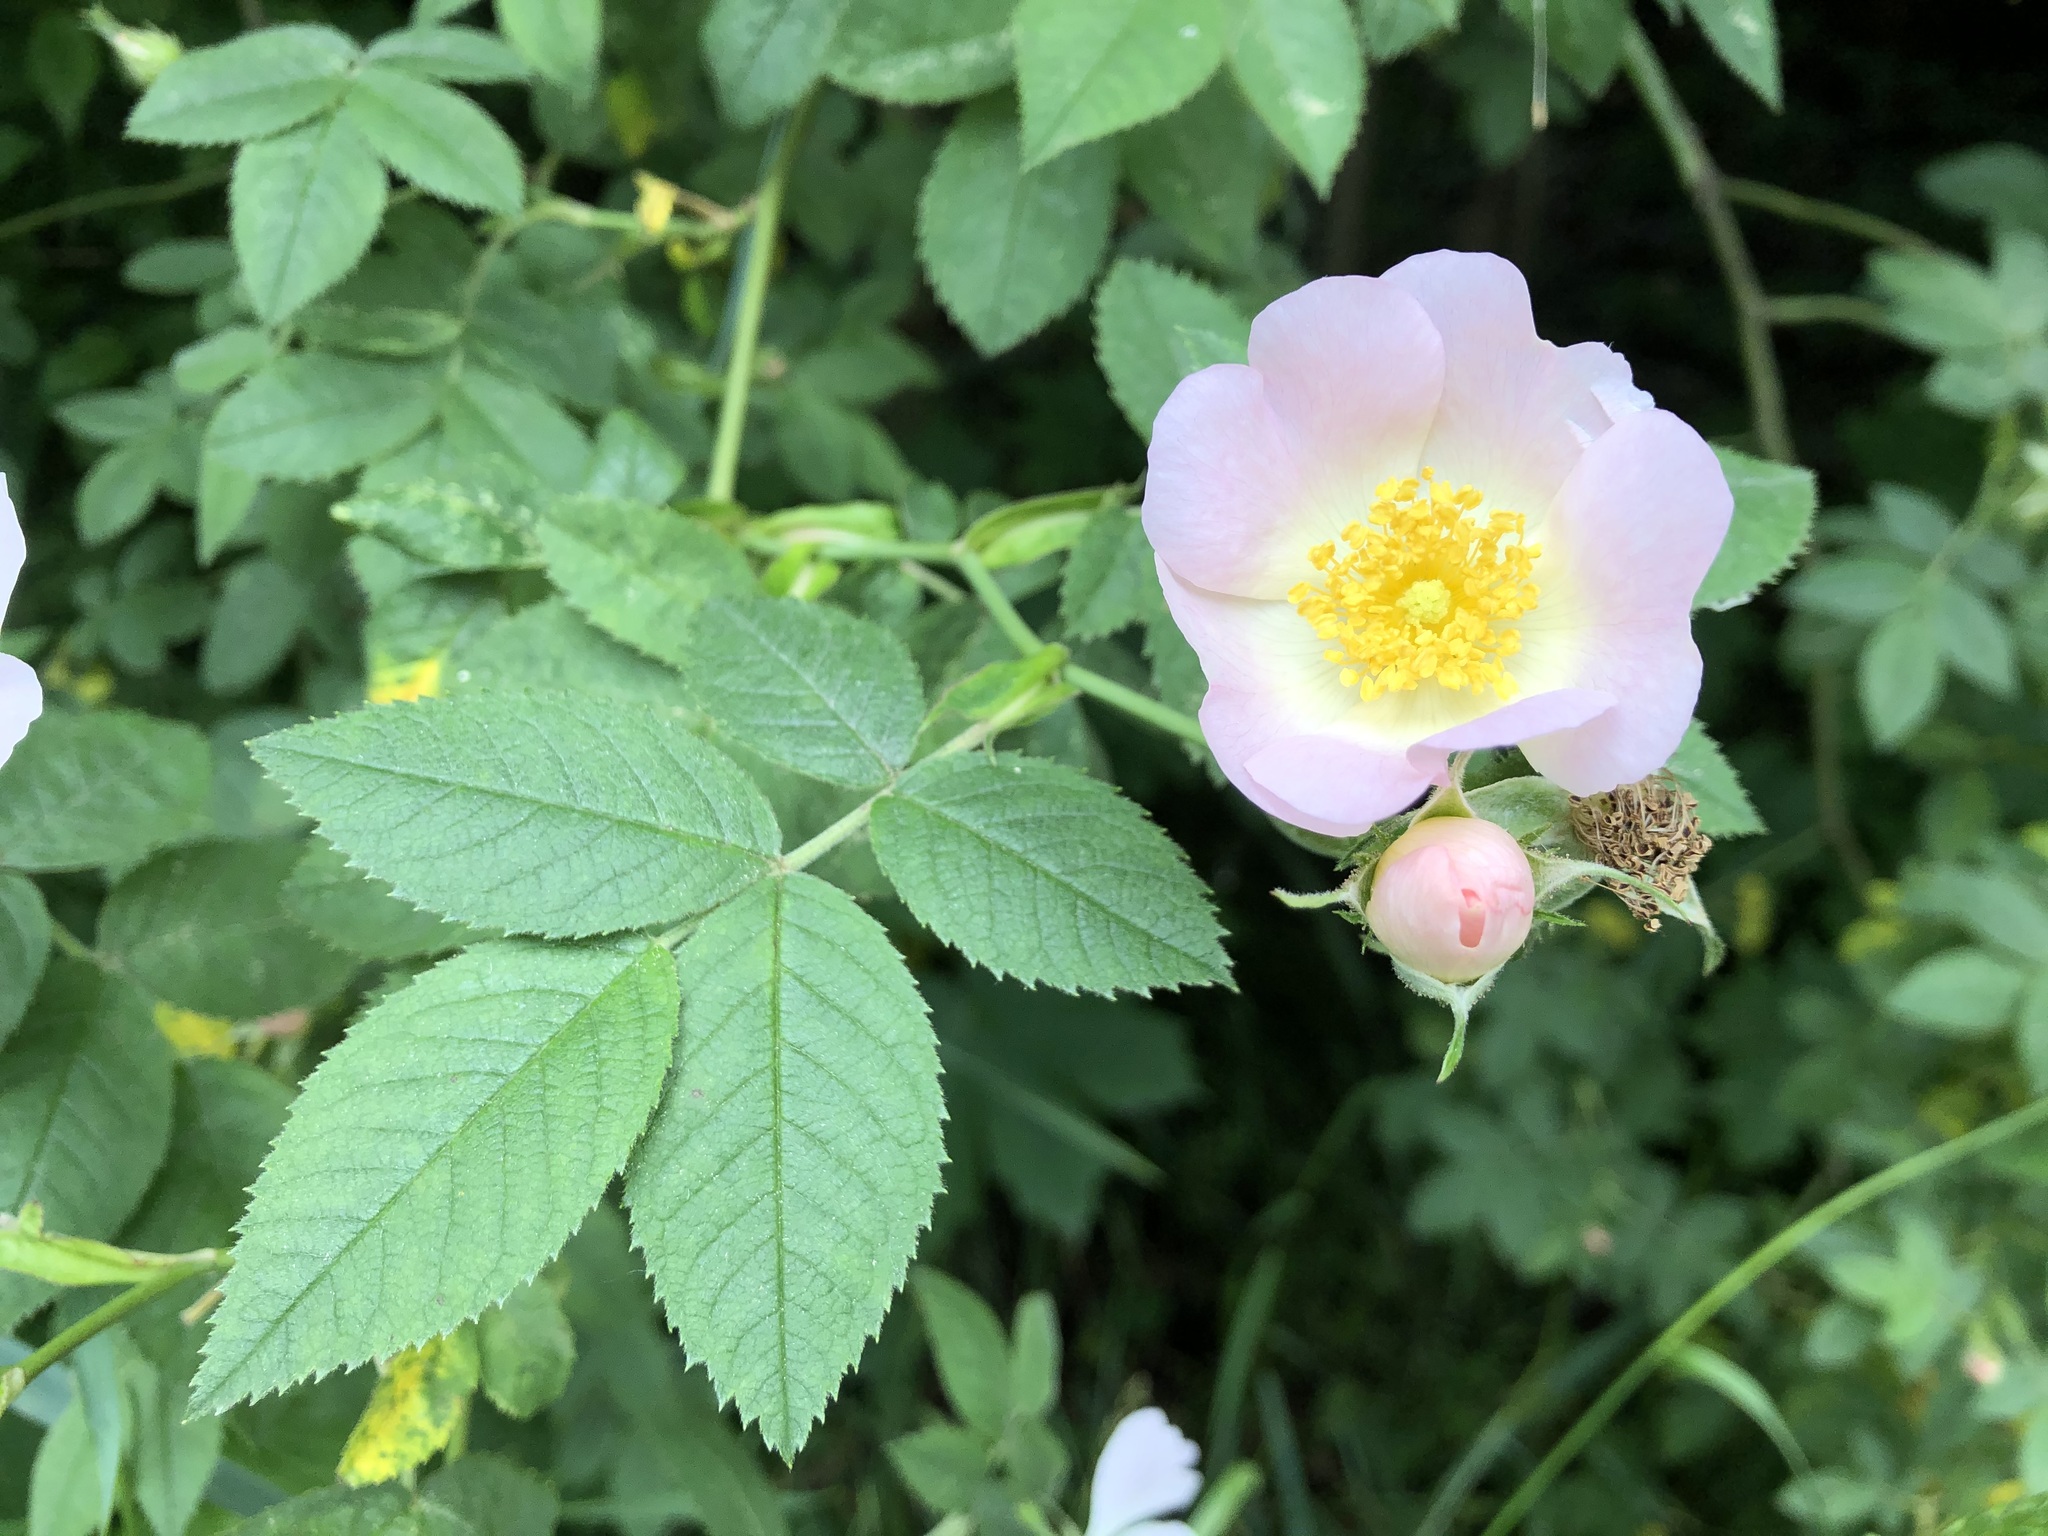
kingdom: Plantae
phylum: Tracheophyta
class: Magnoliopsida
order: Rosales
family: Rosaceae
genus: Rosa
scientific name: Rosa canina
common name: Dog rose
